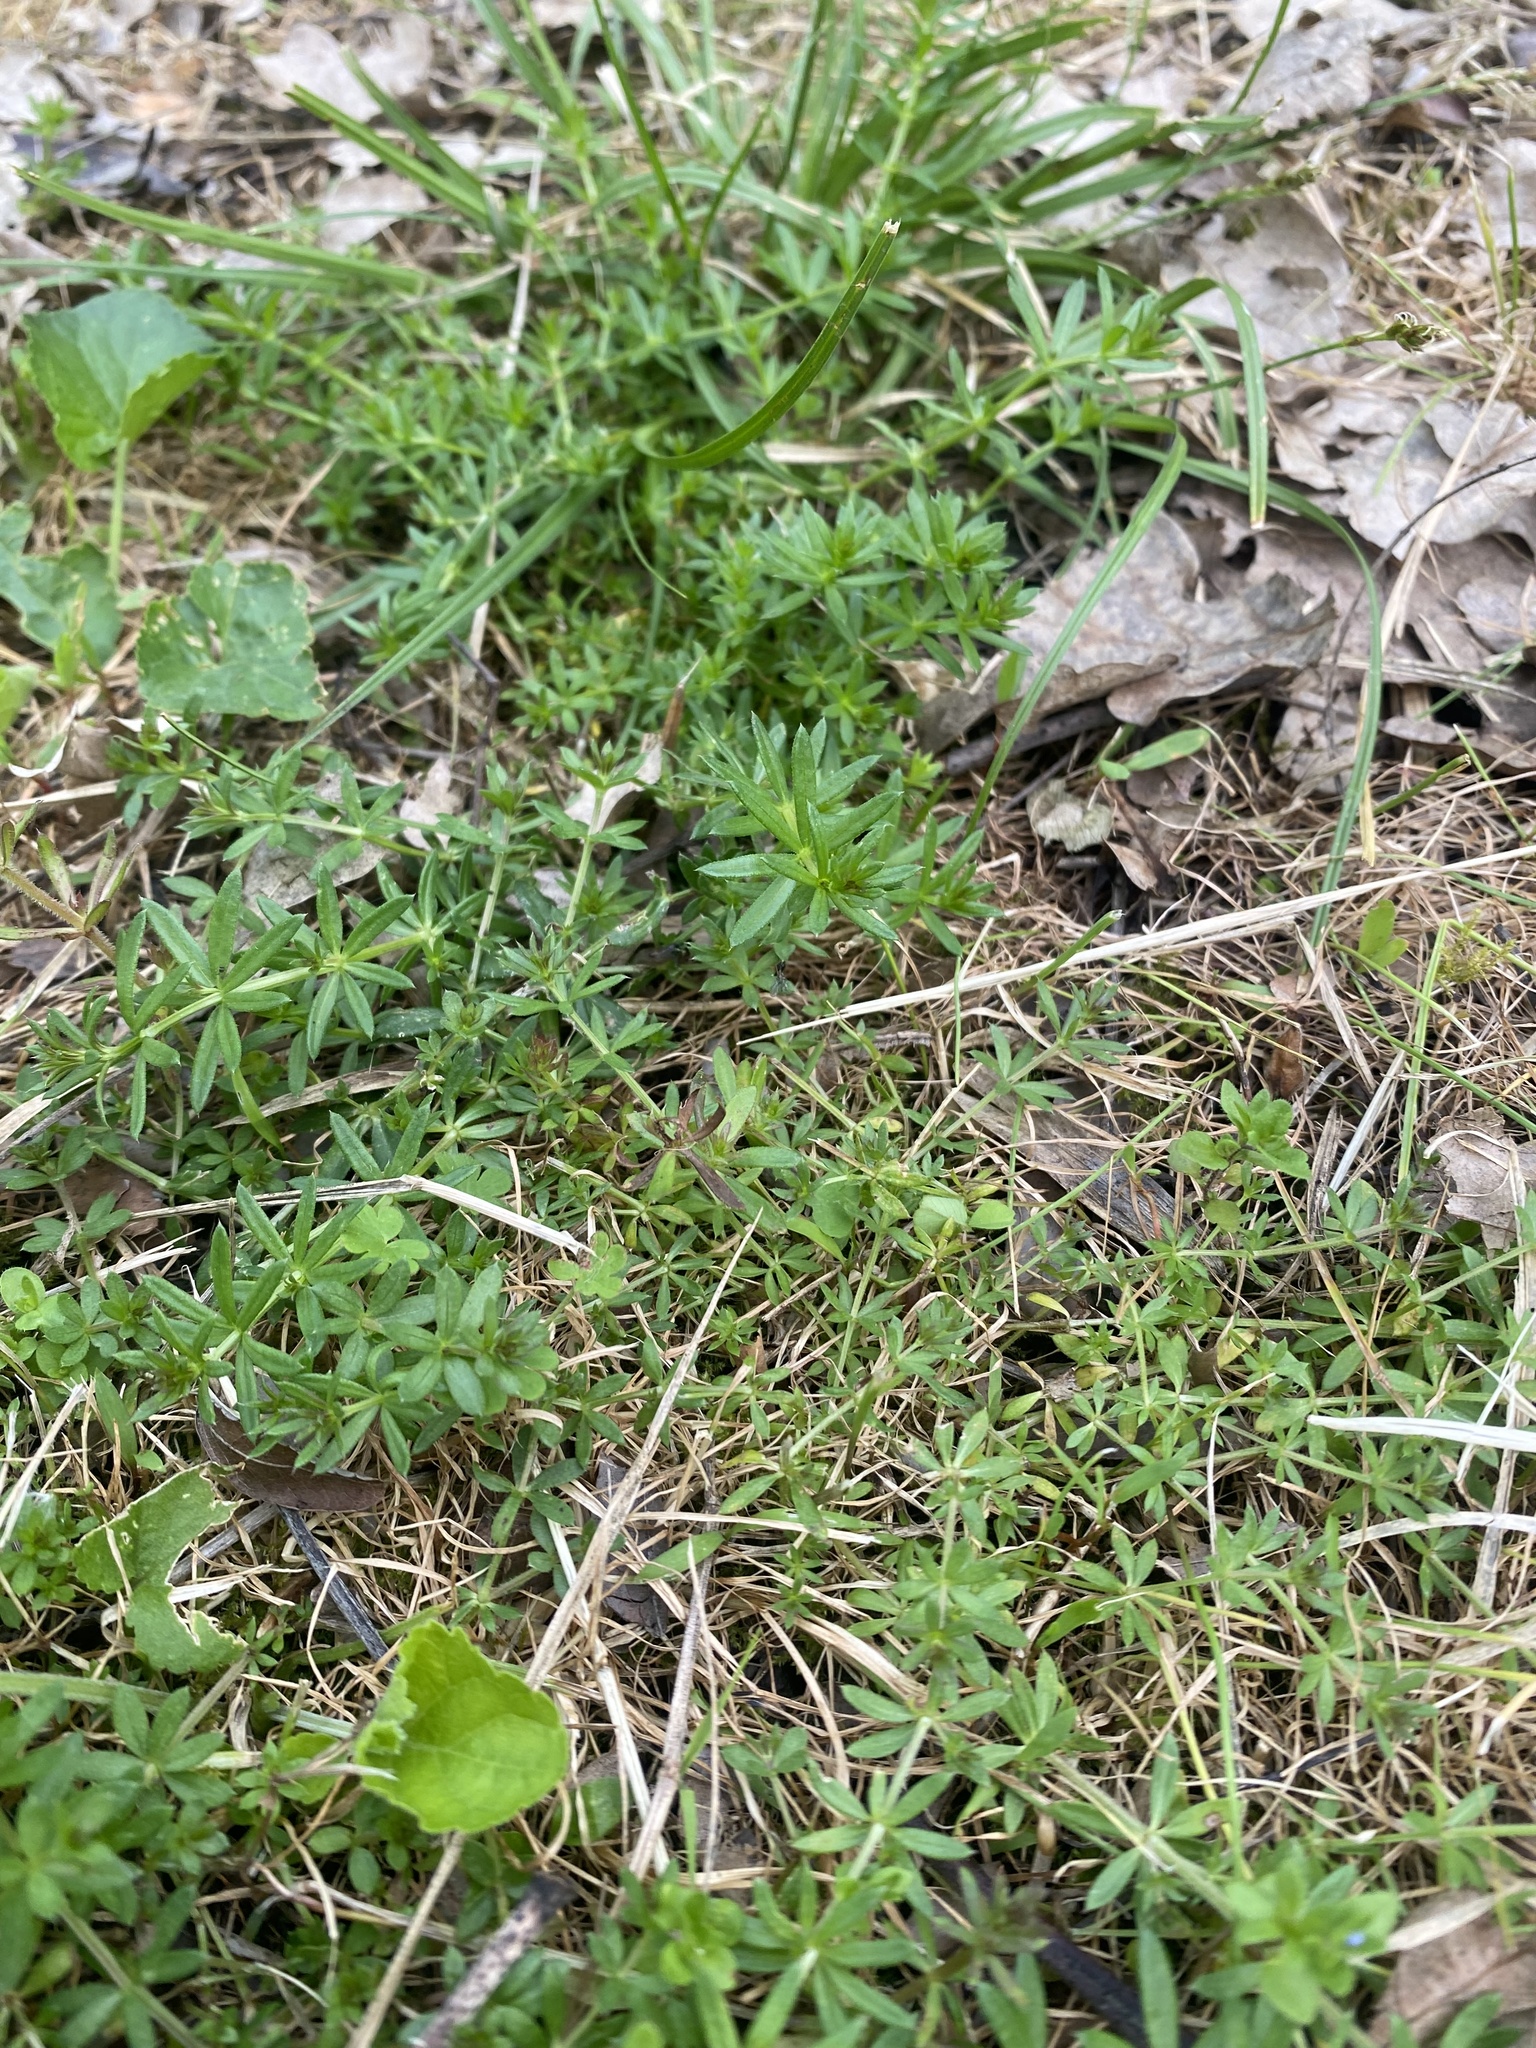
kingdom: Plantae
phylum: Tracheophyta
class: Magnoliopsida
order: Gentianales
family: Rubiaceae
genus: Galium
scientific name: Galium humifusum
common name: Spreading bedstraw
